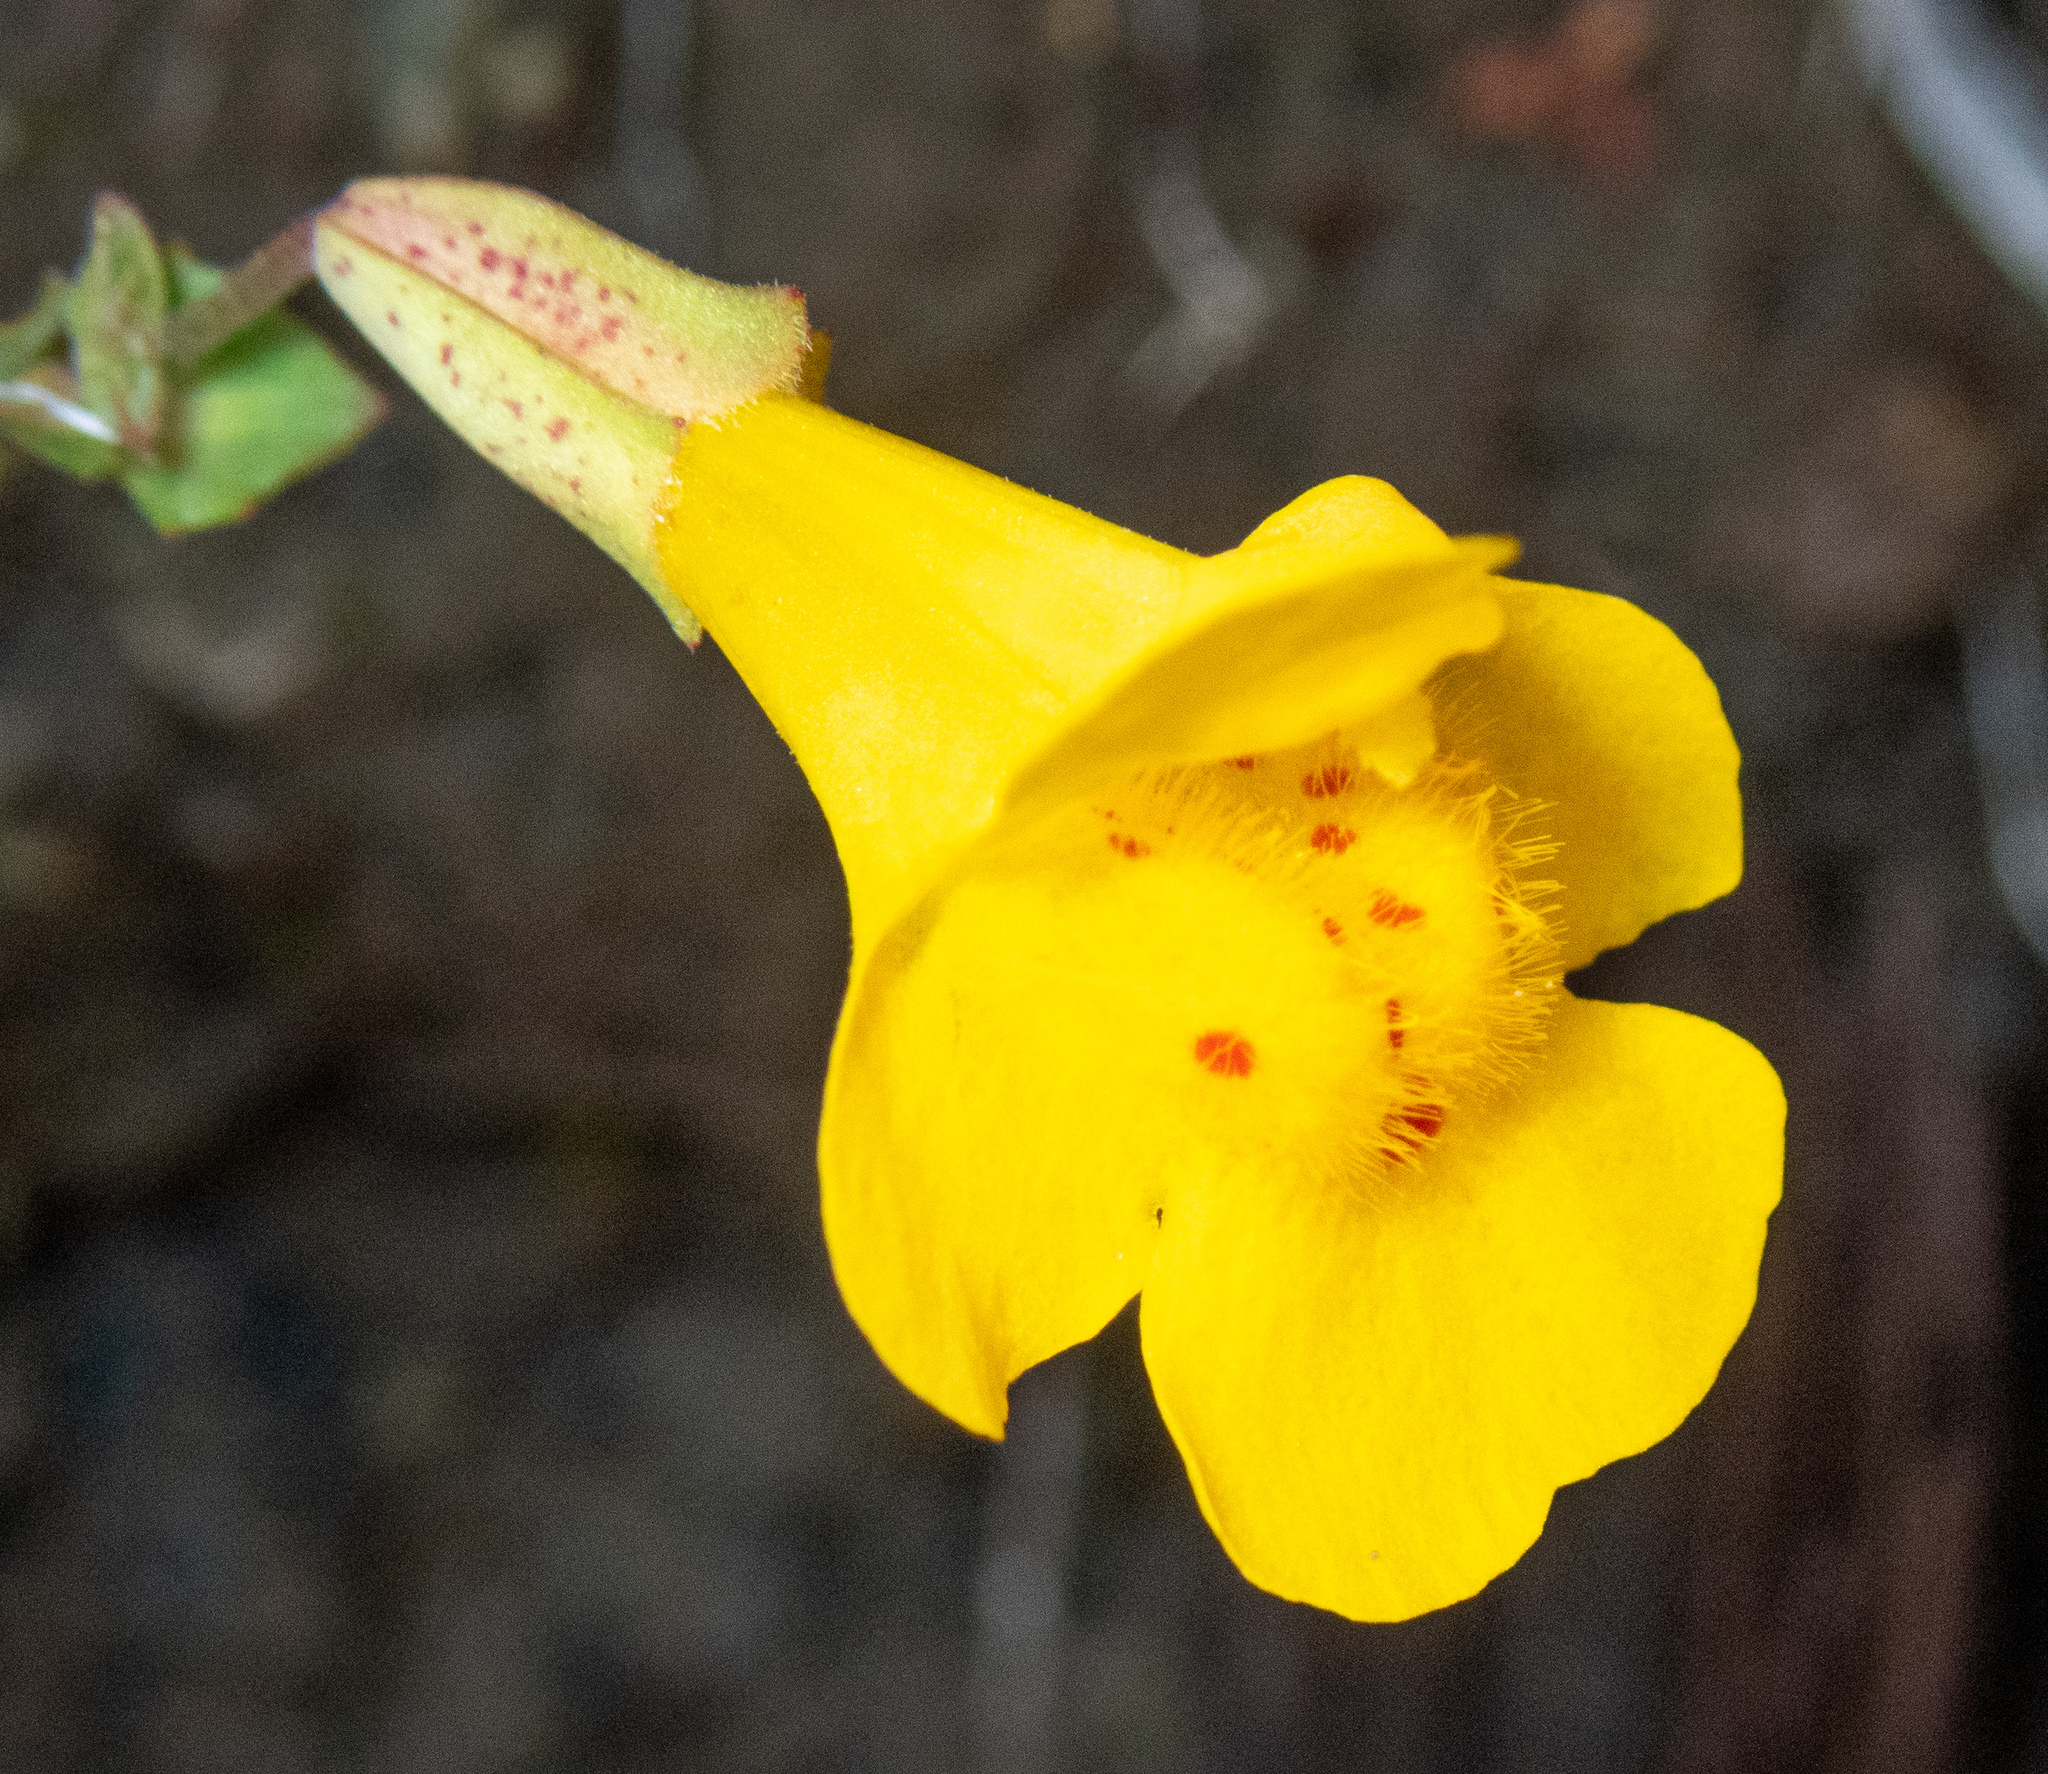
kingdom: Plantae
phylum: Tracheophyta
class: Magnoliopsida
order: Lamiales
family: Phrymaceae
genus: Erythranthe
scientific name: Erythranthe microphylla
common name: Bentham's monkeyflower
